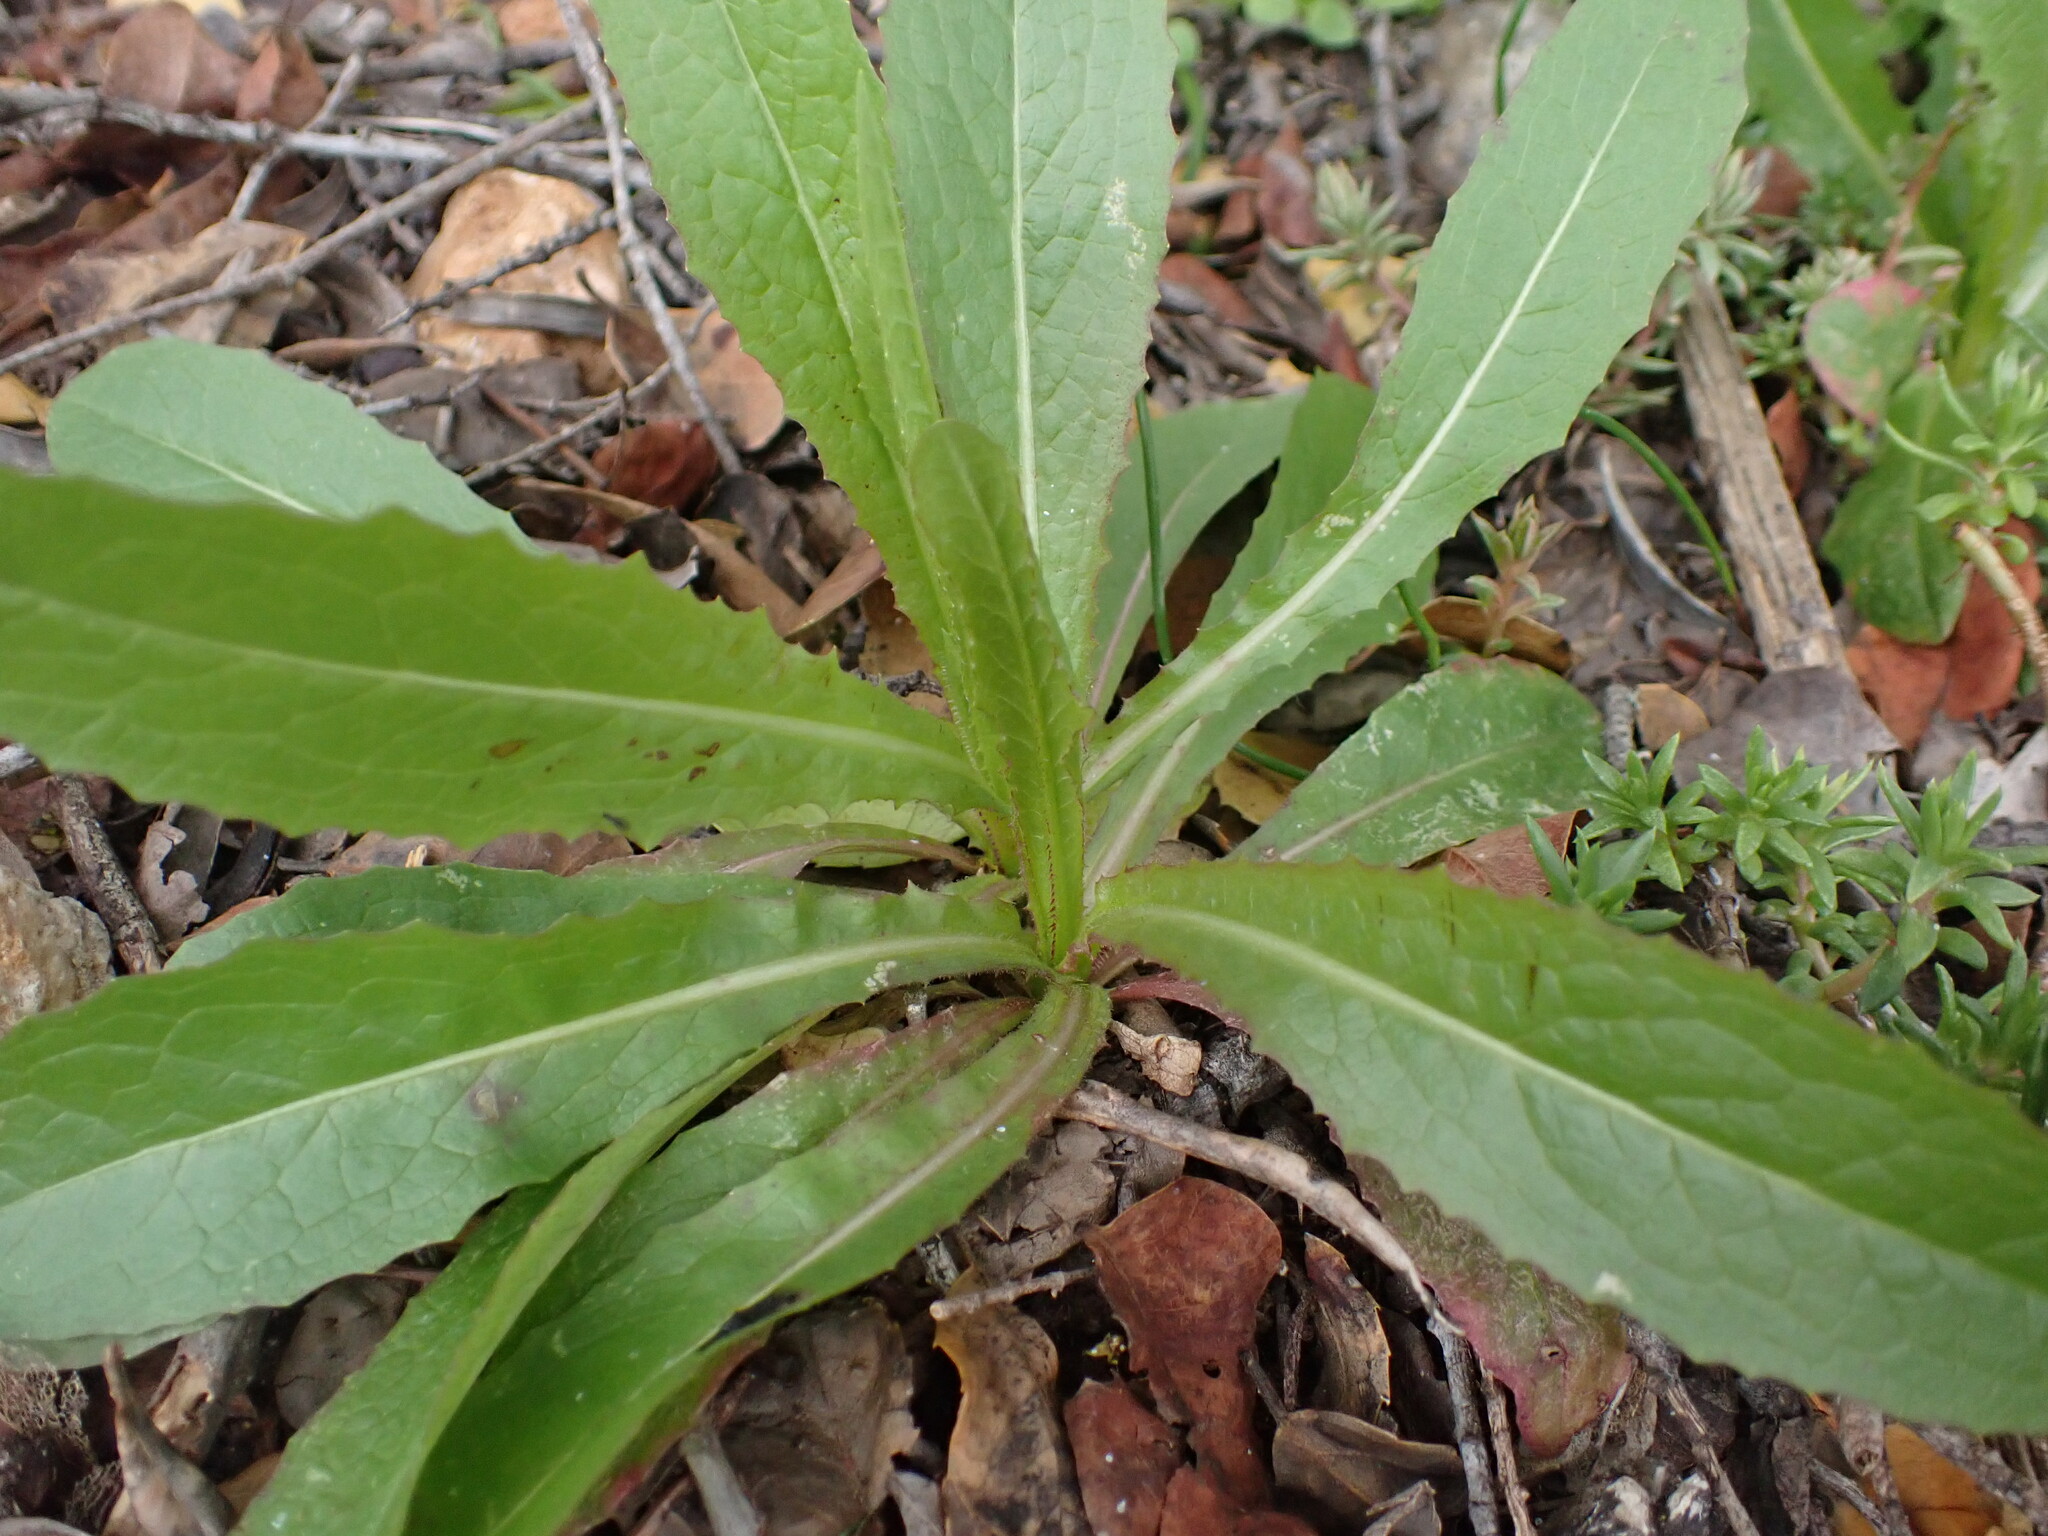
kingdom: Plantae
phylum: Tracheophyta
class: Magnoliopsida
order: Asterales
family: Asteraceae
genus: Lactuca
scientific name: Lactuca serriola
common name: Prickly lettuce
